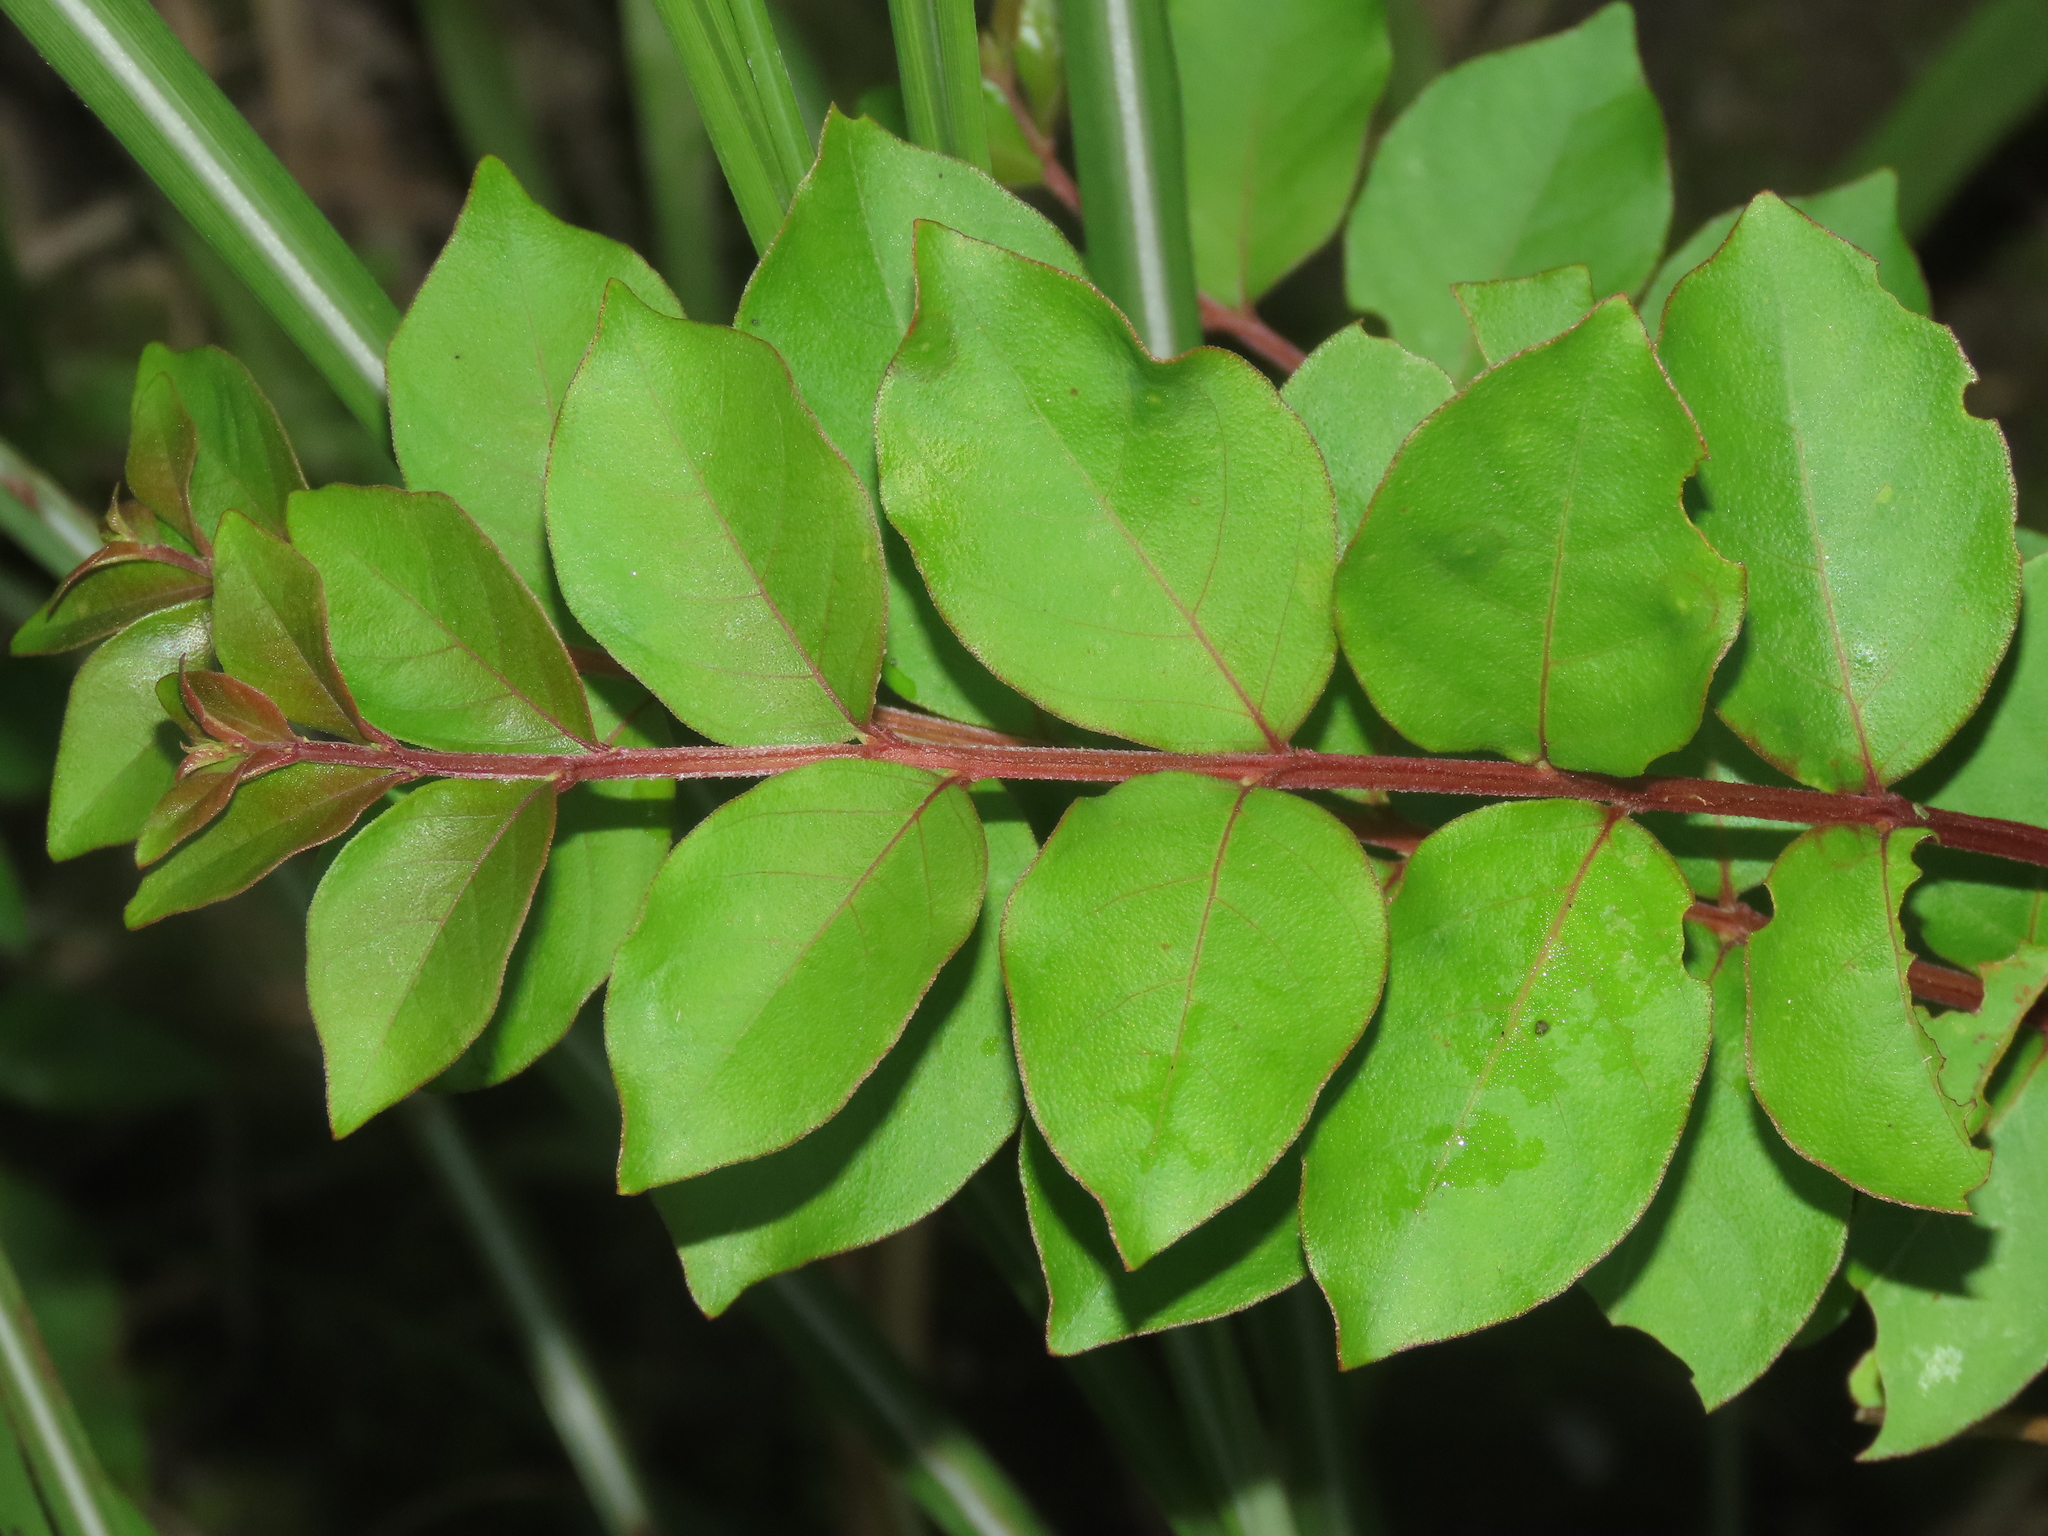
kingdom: Plantae
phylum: Tracheophyta
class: Magnoliopsida
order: Myrtales
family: Lythraceae
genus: Lagerstroemia
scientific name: Lagerstroemia subcostata
